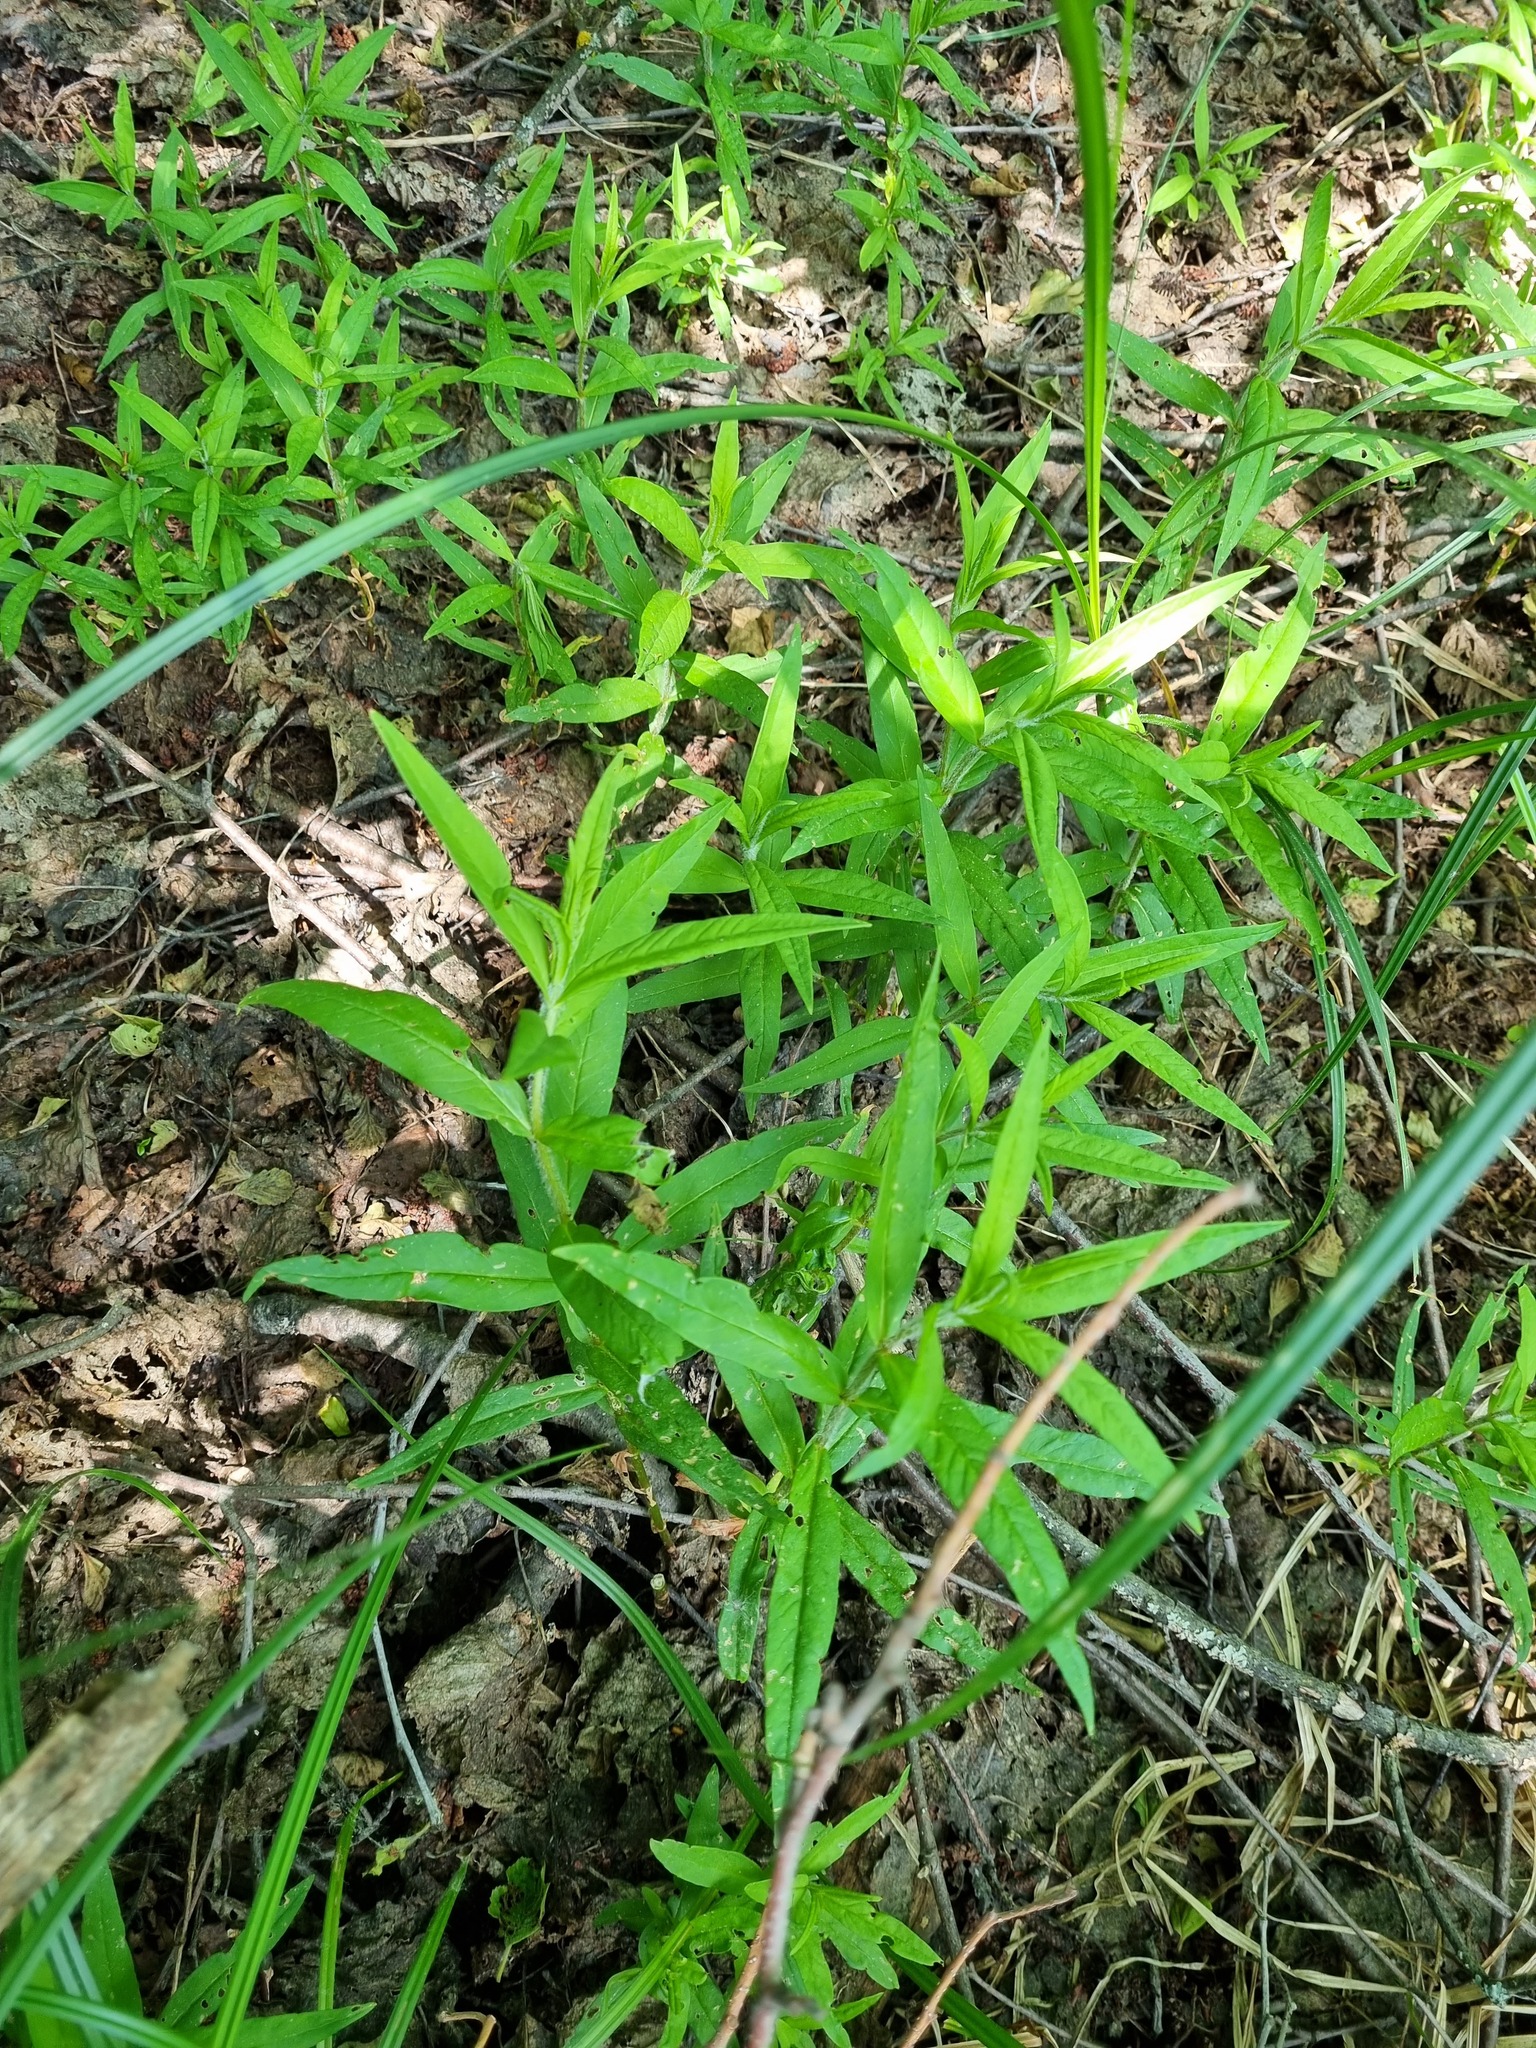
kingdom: Plantae
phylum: Tracheophyta
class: Magnoliopsida
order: Ericales
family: Primulaceae
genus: Lysimachia
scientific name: Lysimachia thyrsiflora
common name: Tufted loosestrife
